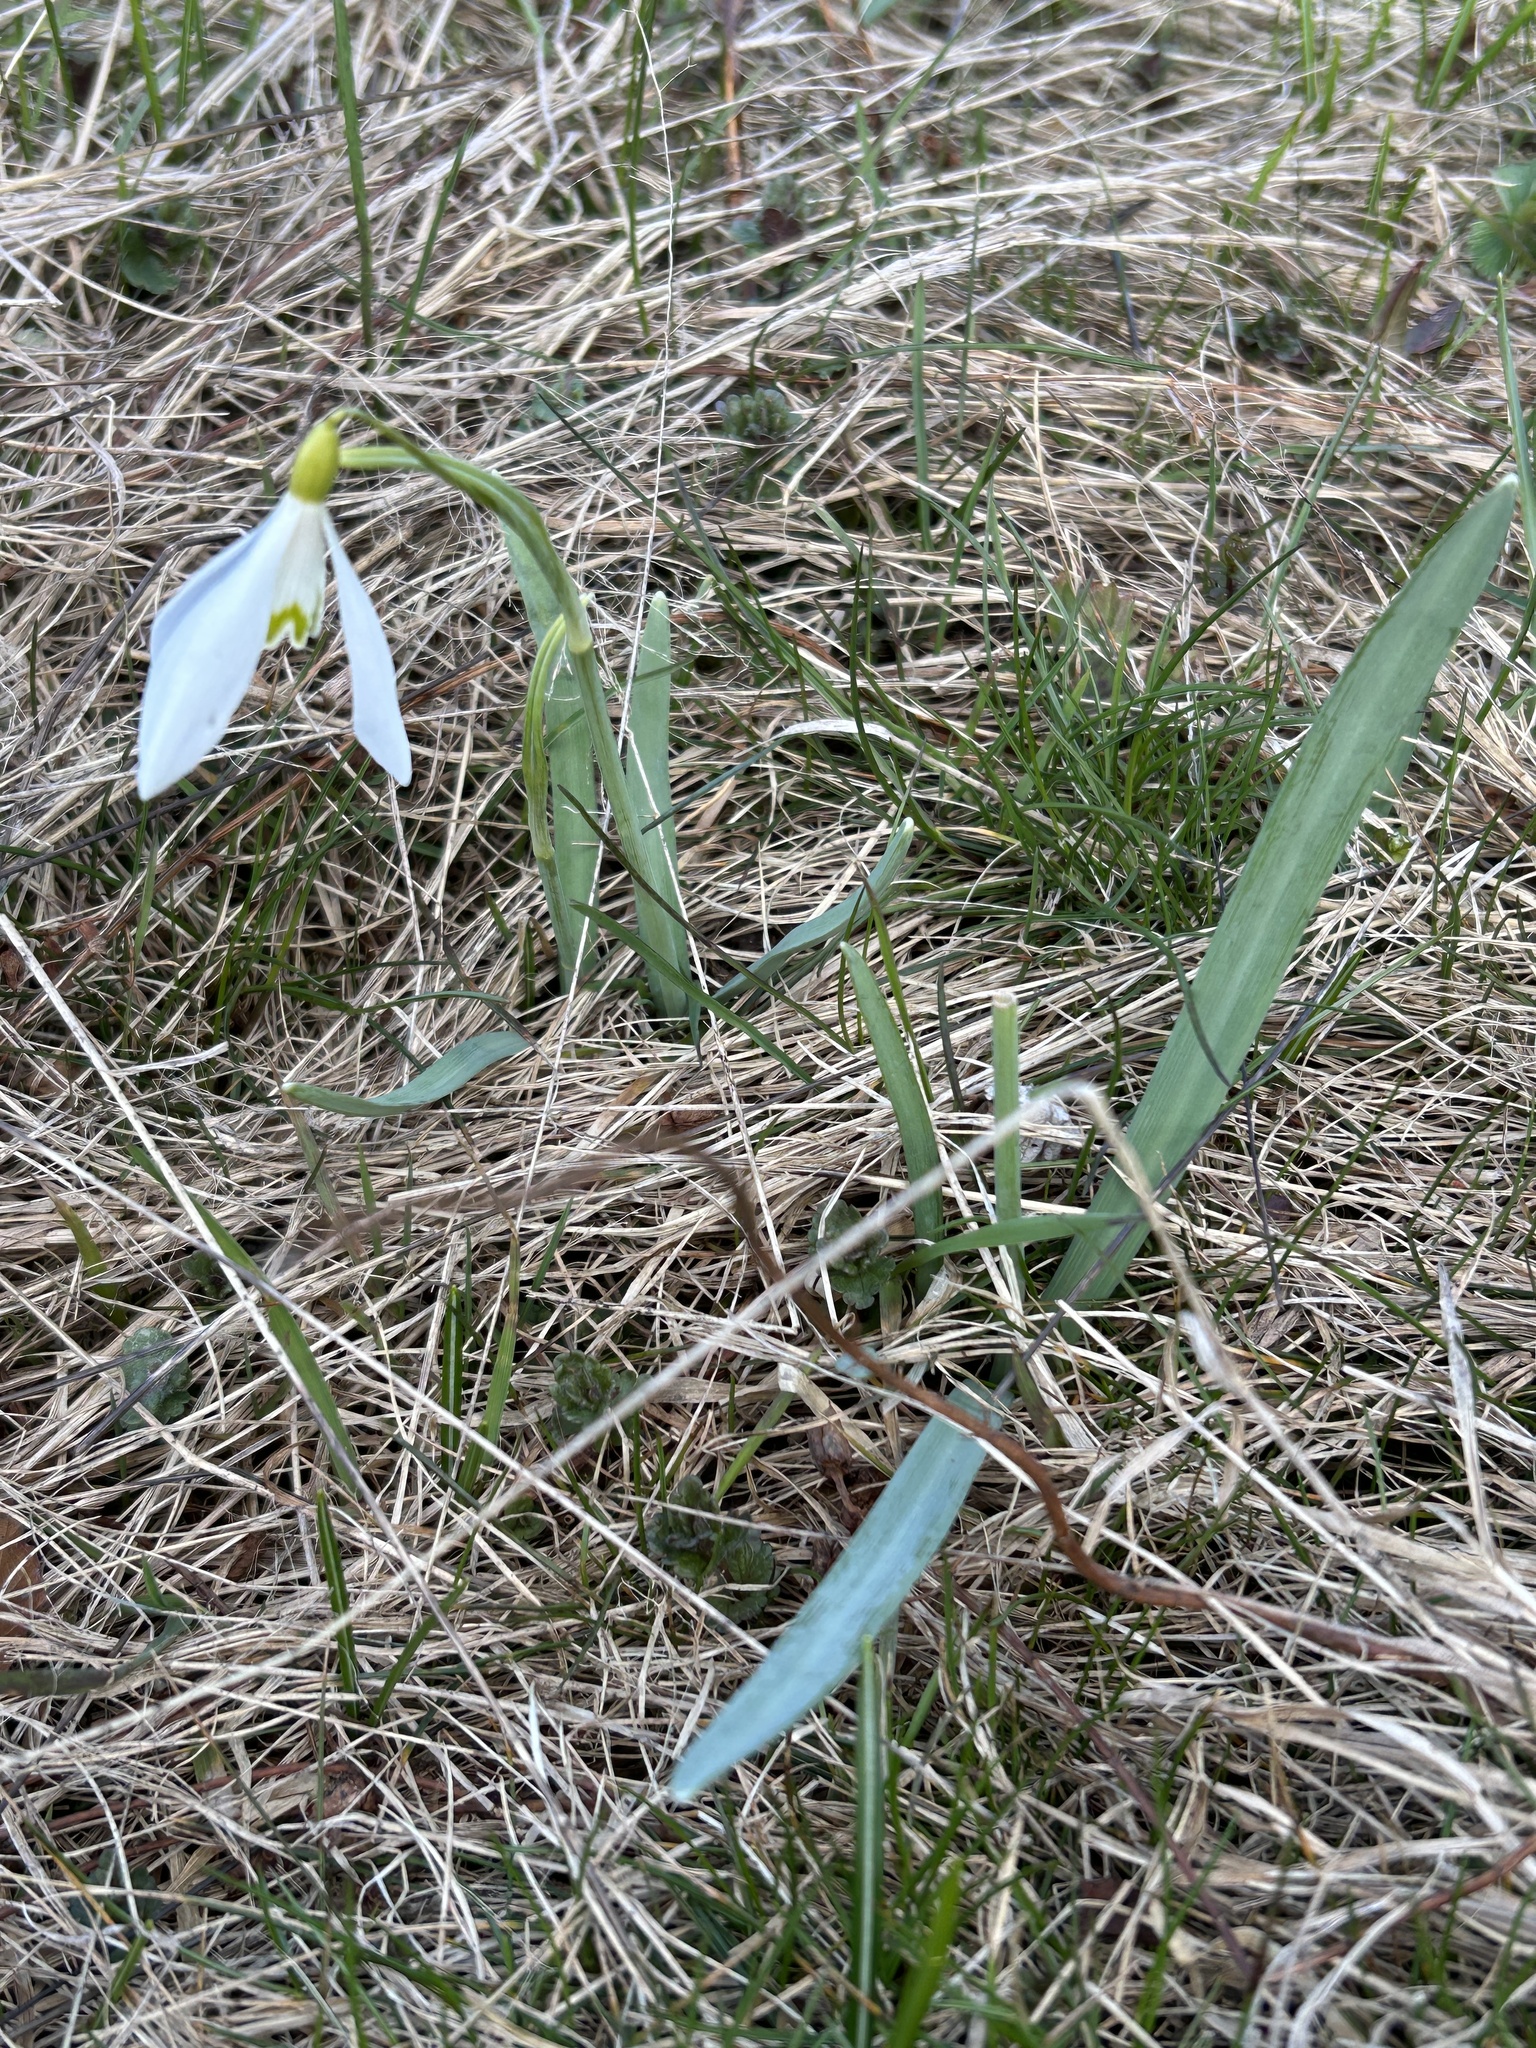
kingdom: Plantae
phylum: Tracheophyta
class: Liliopsida
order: Asparagales
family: Amaryllidaceae
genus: Galanthus
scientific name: Galanthus nivalis
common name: Snowdrop
